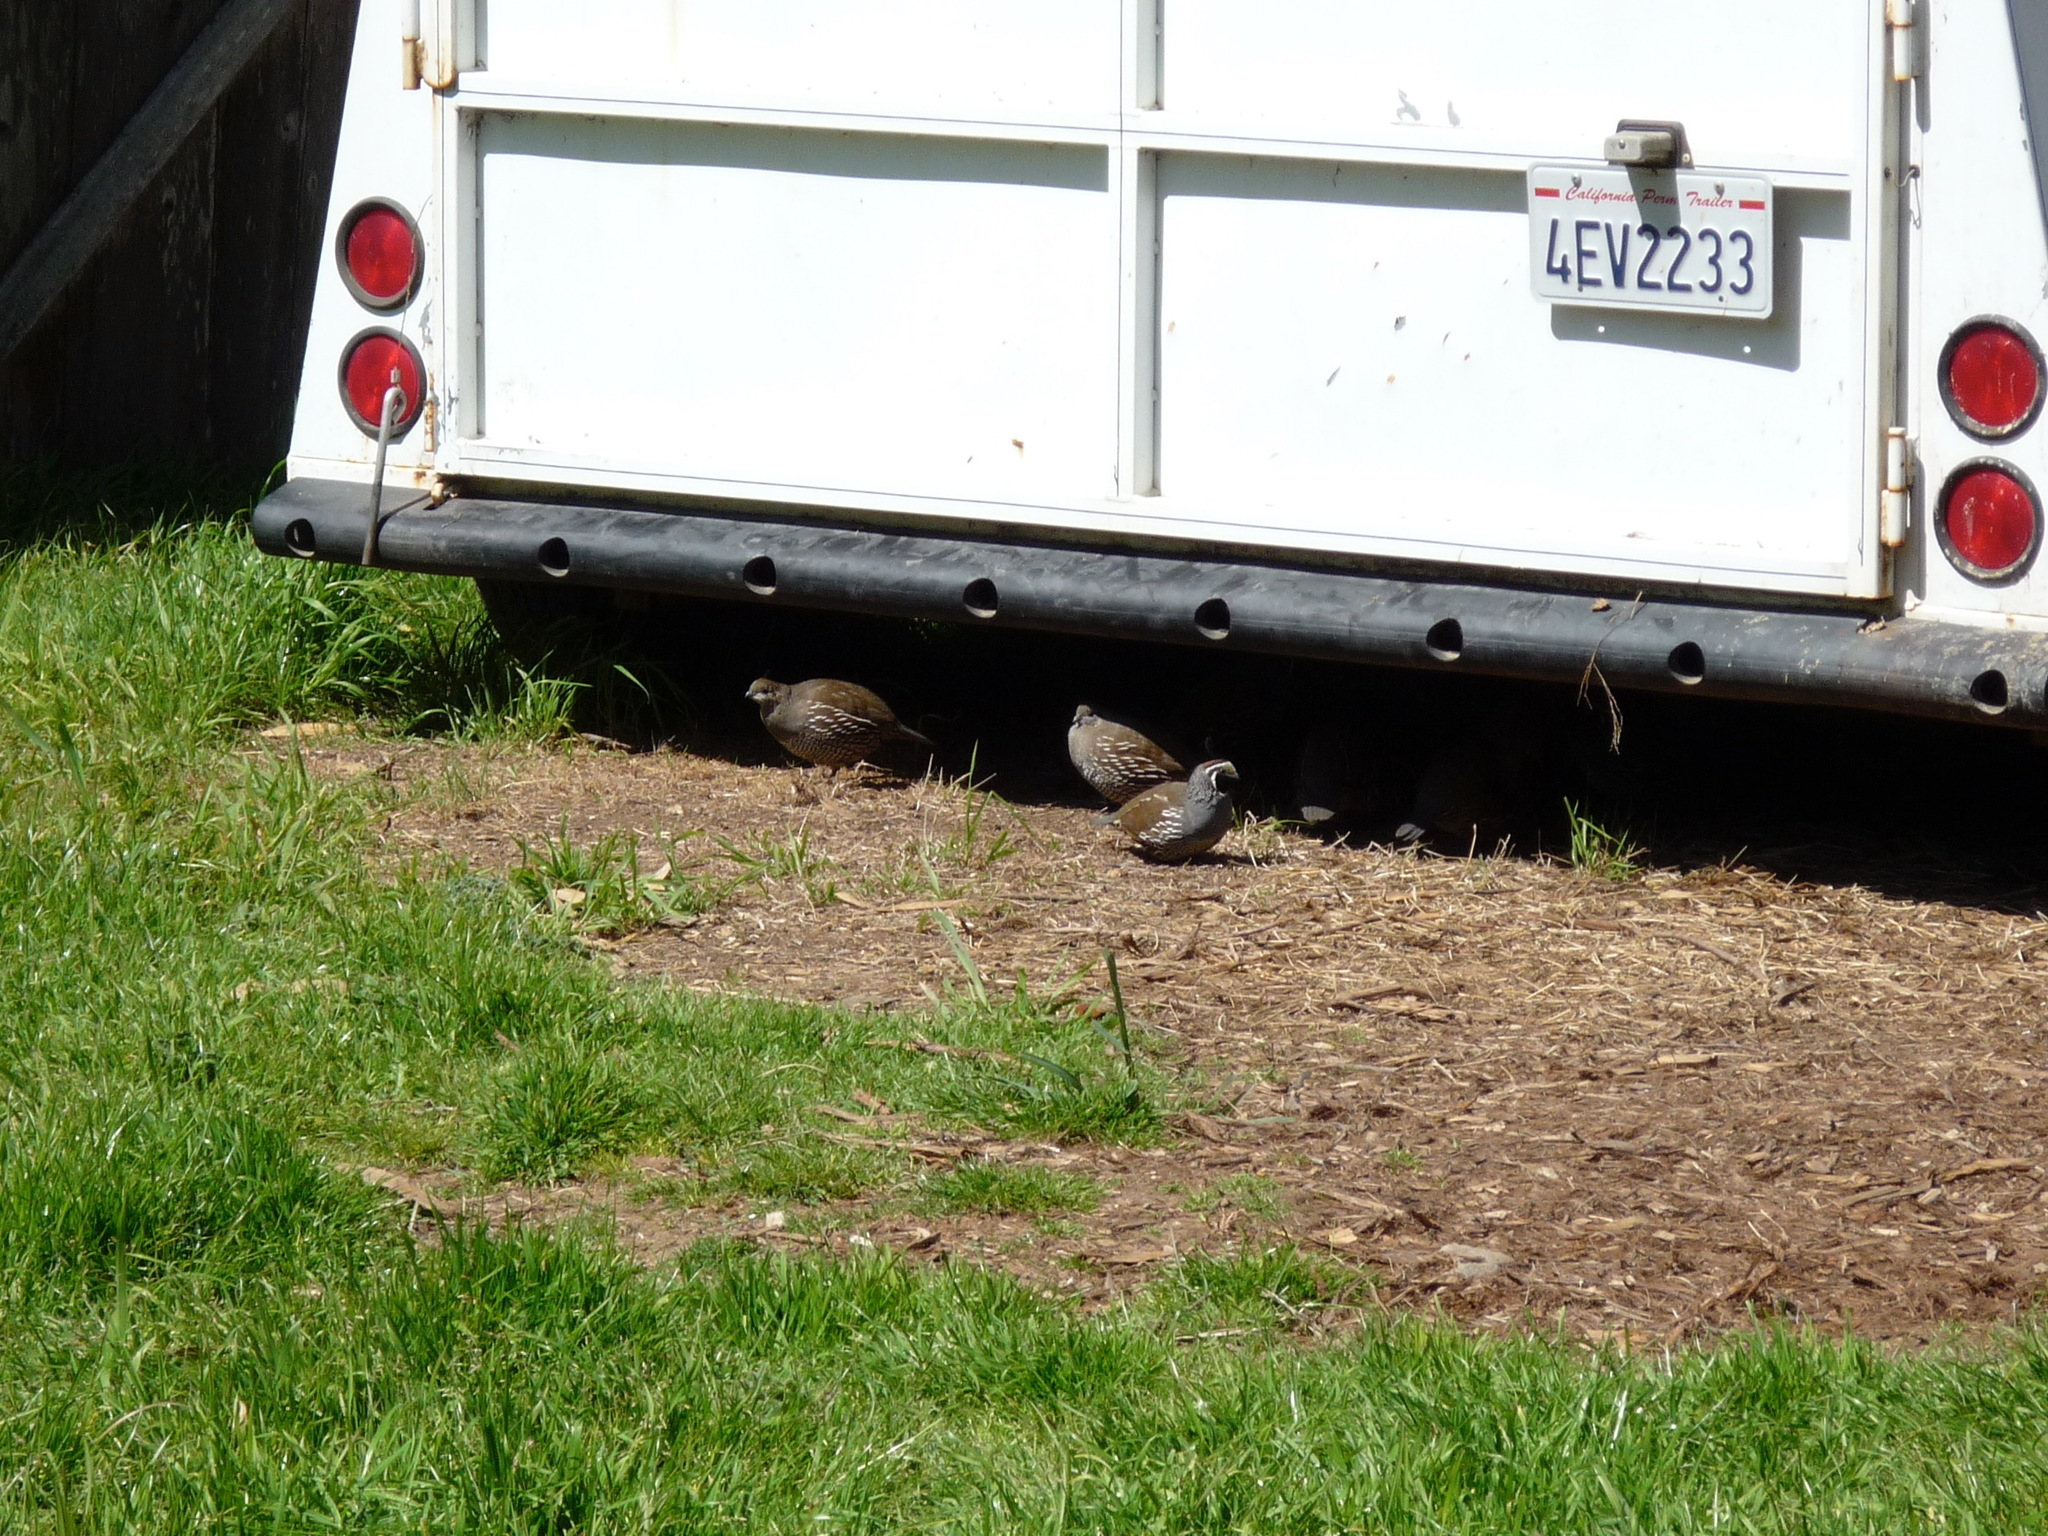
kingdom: Animalia
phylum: Chordata
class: Aves
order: Galliformes
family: Odontophoridae
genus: Callipepla
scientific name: Callipepla californica
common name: California quail
